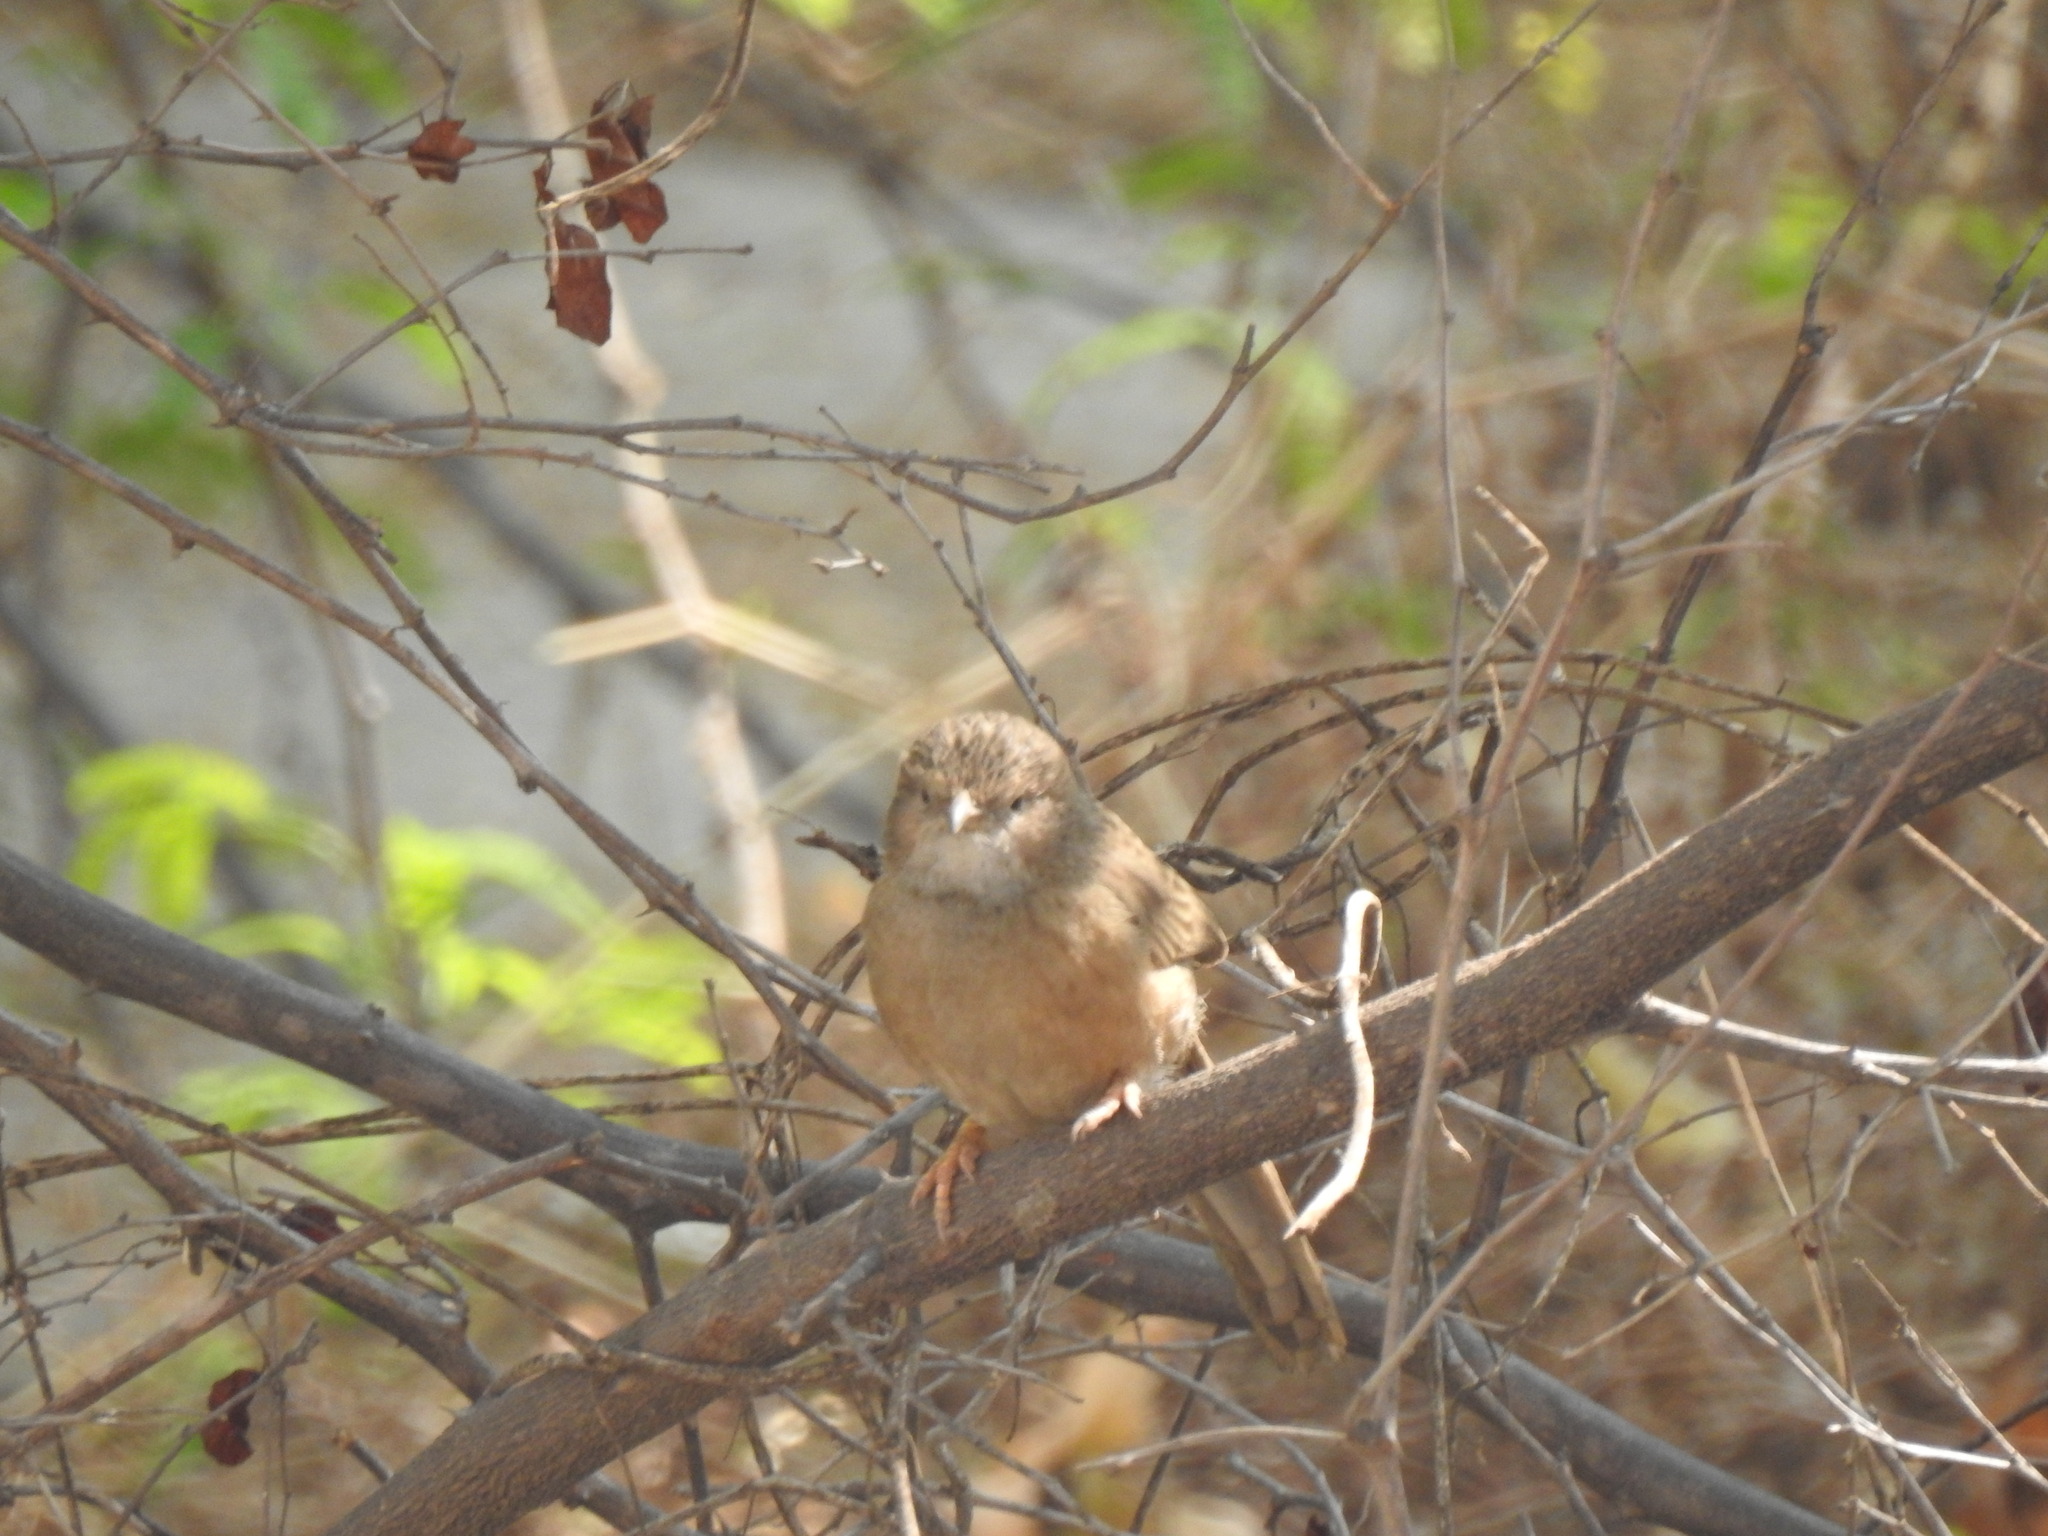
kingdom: Animalia
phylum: Chordata
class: Aves
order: Passeriformes
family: Leiothrichidae
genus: Turdoides
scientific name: Turdoides caudata
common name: Common babbler
